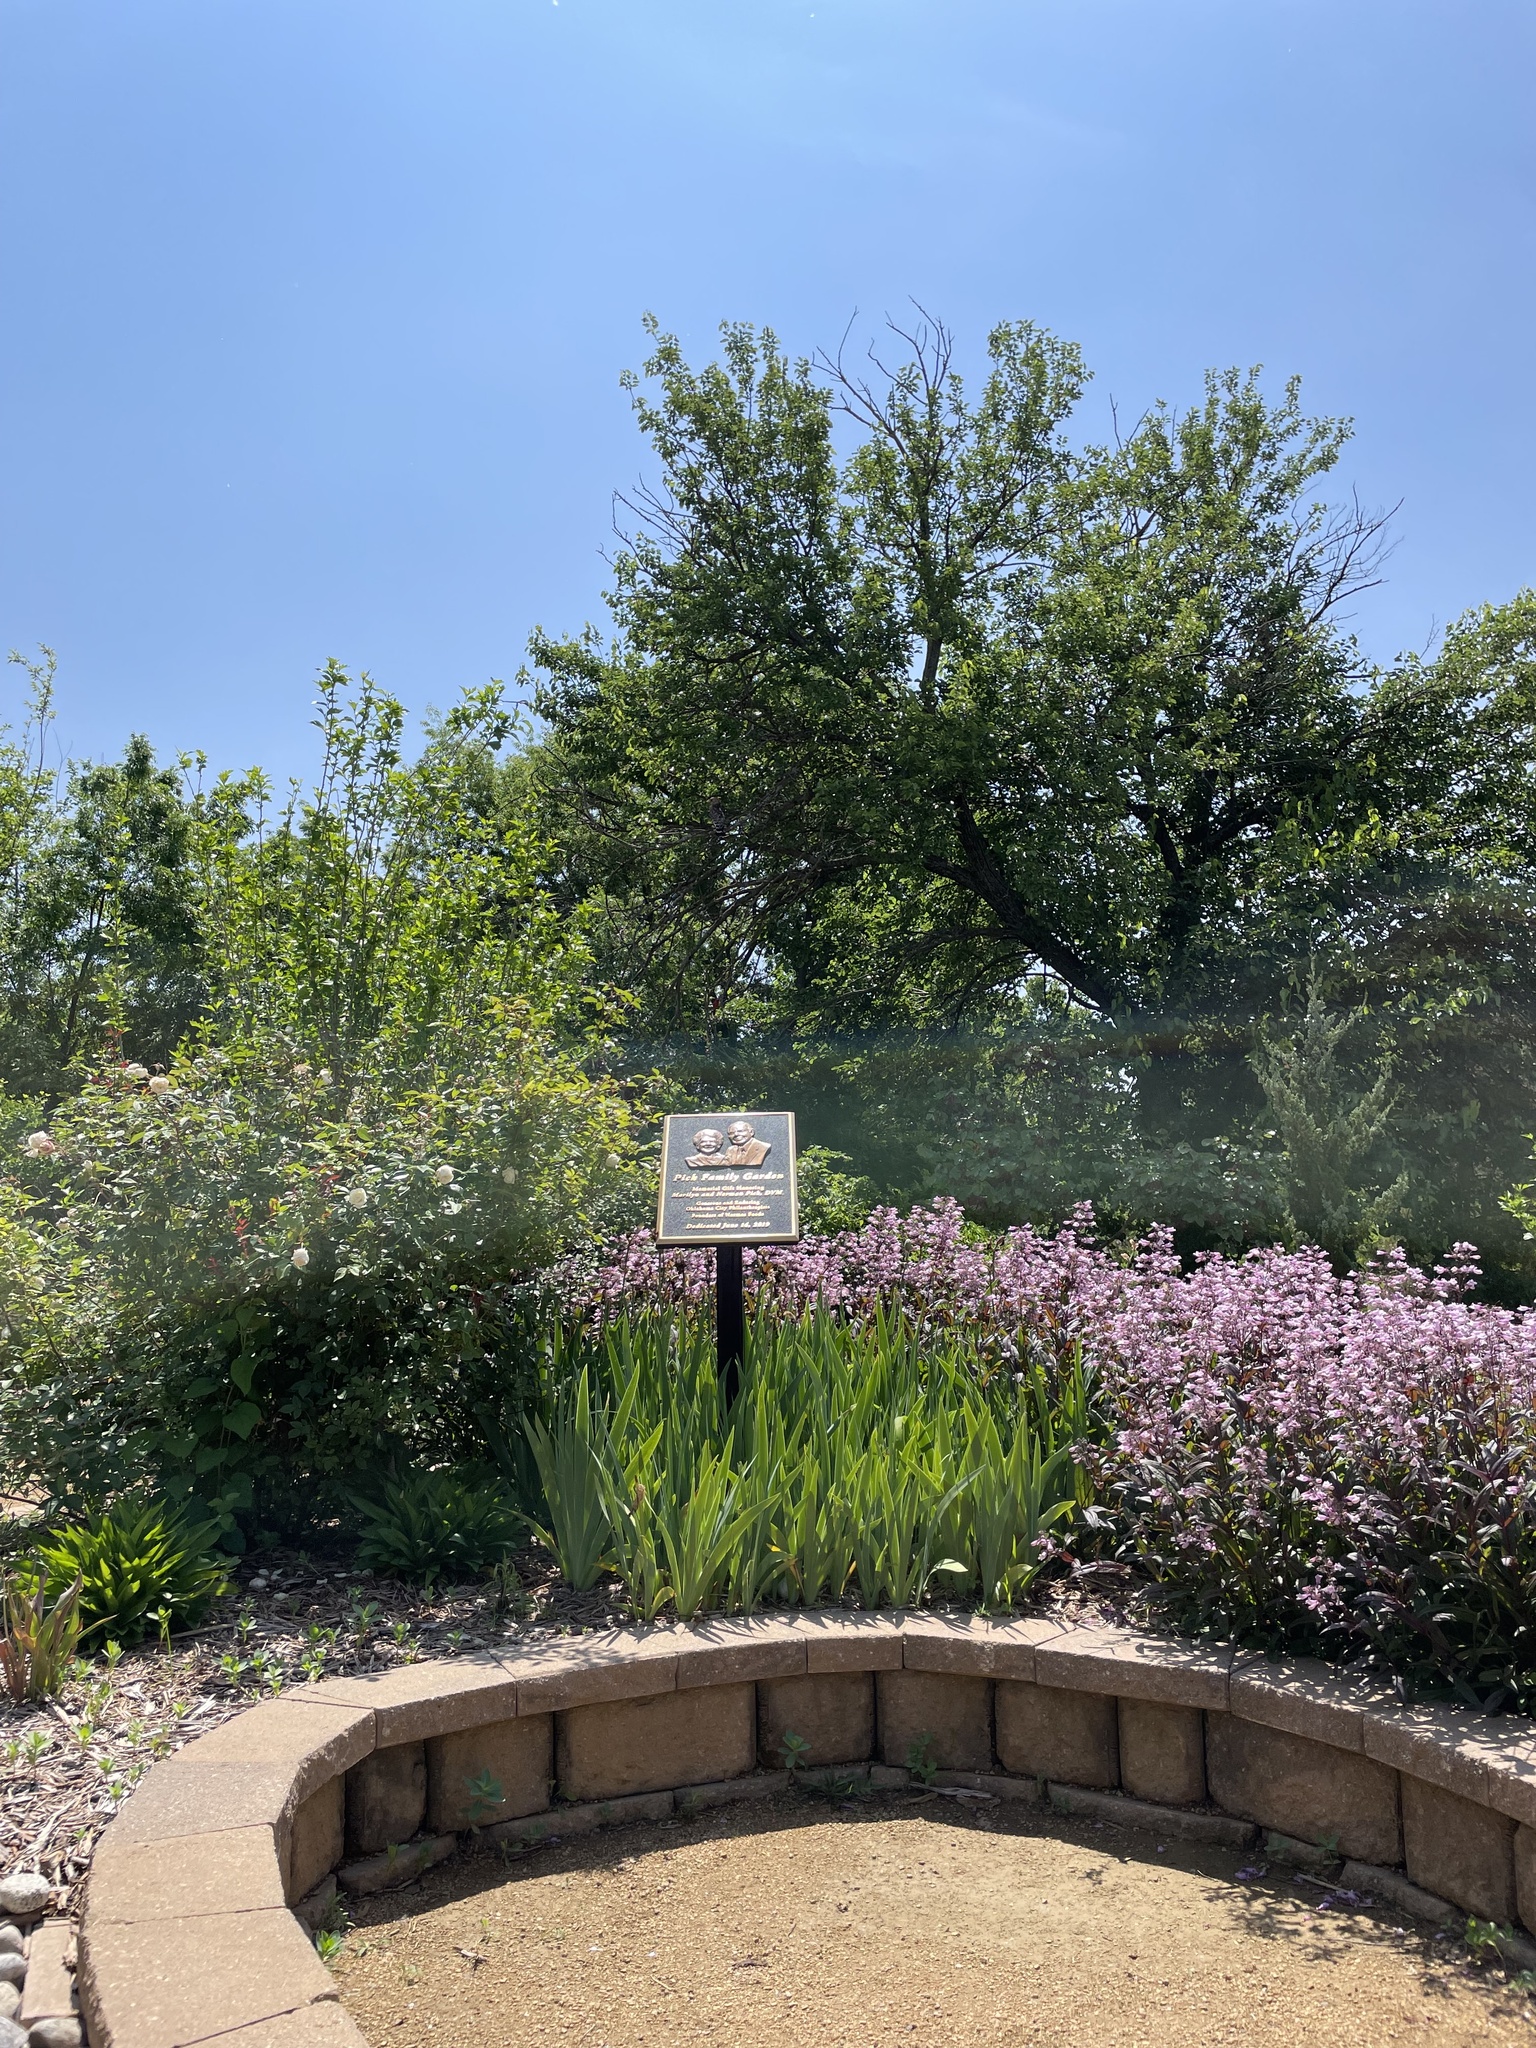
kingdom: Animalia
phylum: Chordata
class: Aves
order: Accipitriformes
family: Accipitridae
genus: Buteo
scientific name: Buteo lineatus
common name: Red-shouldered hawk
